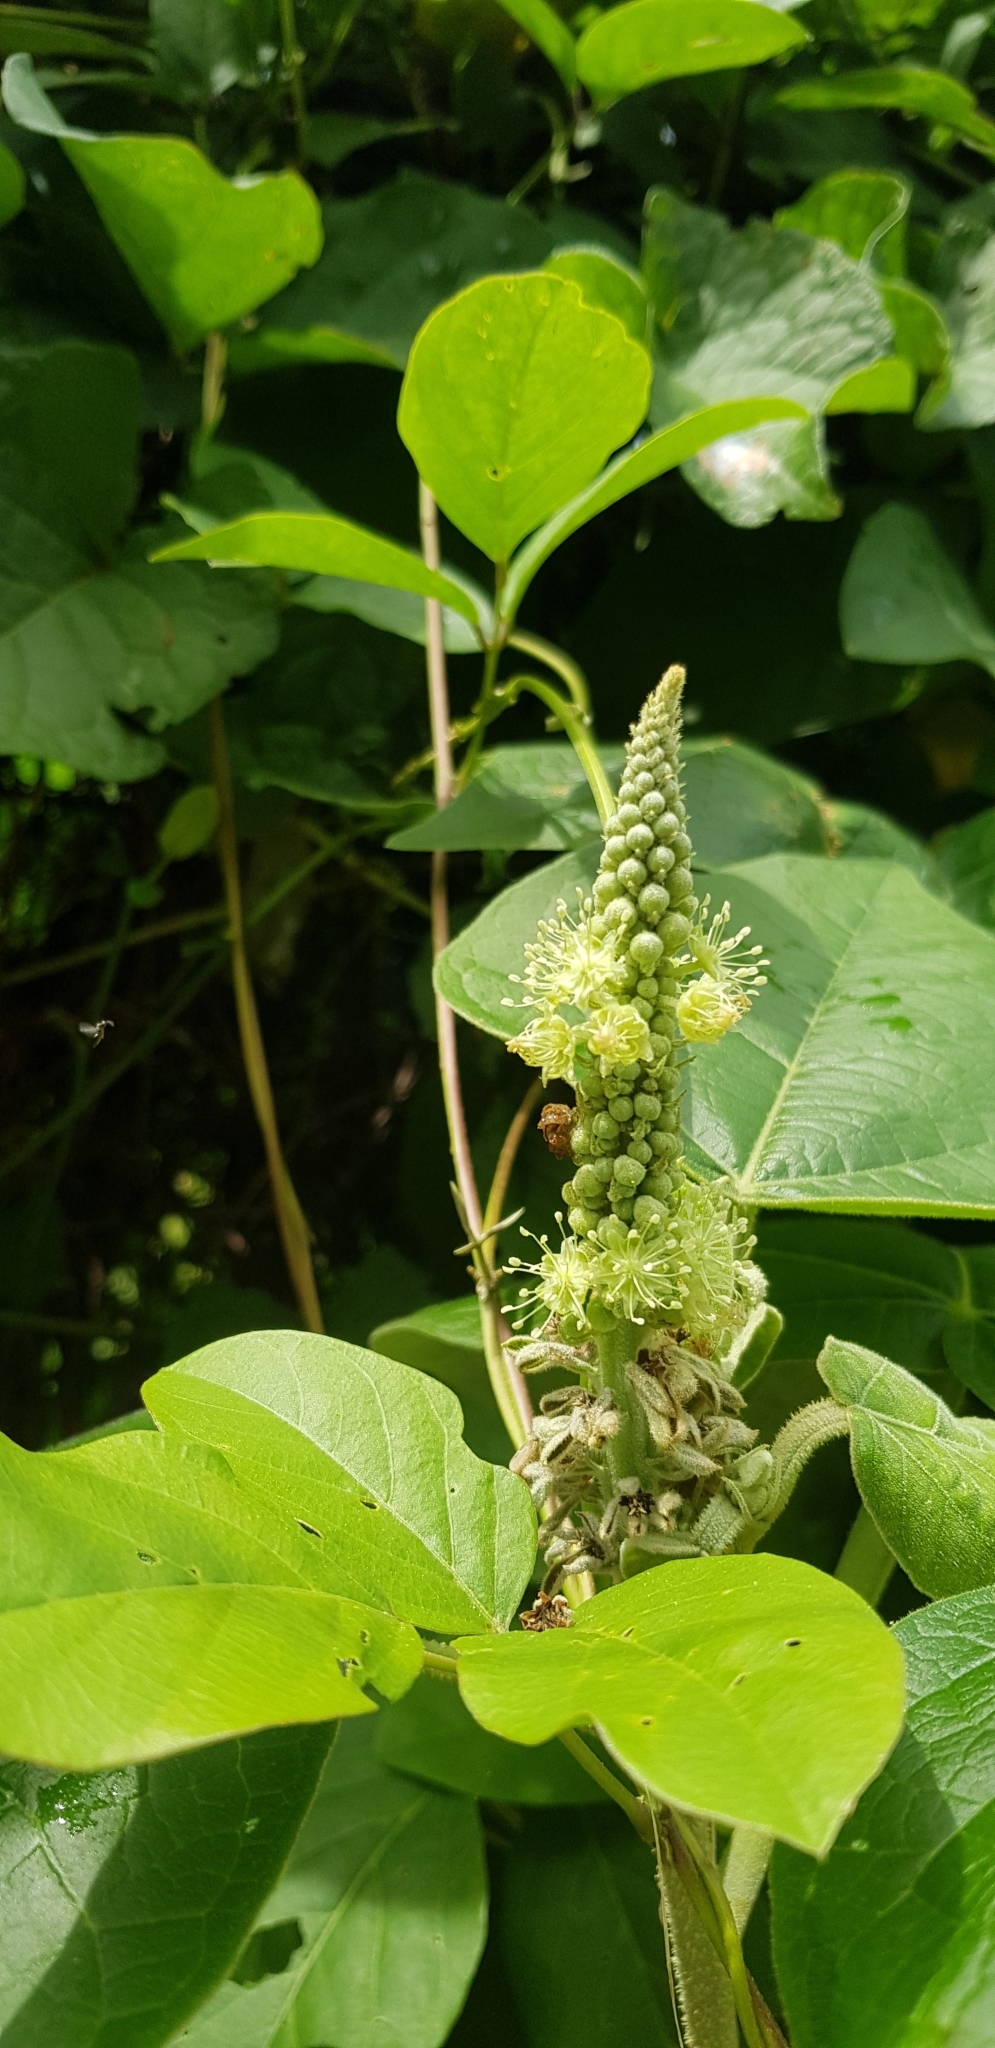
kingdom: Plantae
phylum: Tracheophyta
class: Magnoliopsida
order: Malpighiales
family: Euphorbiaceae
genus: Croton
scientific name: Croton suberosus
